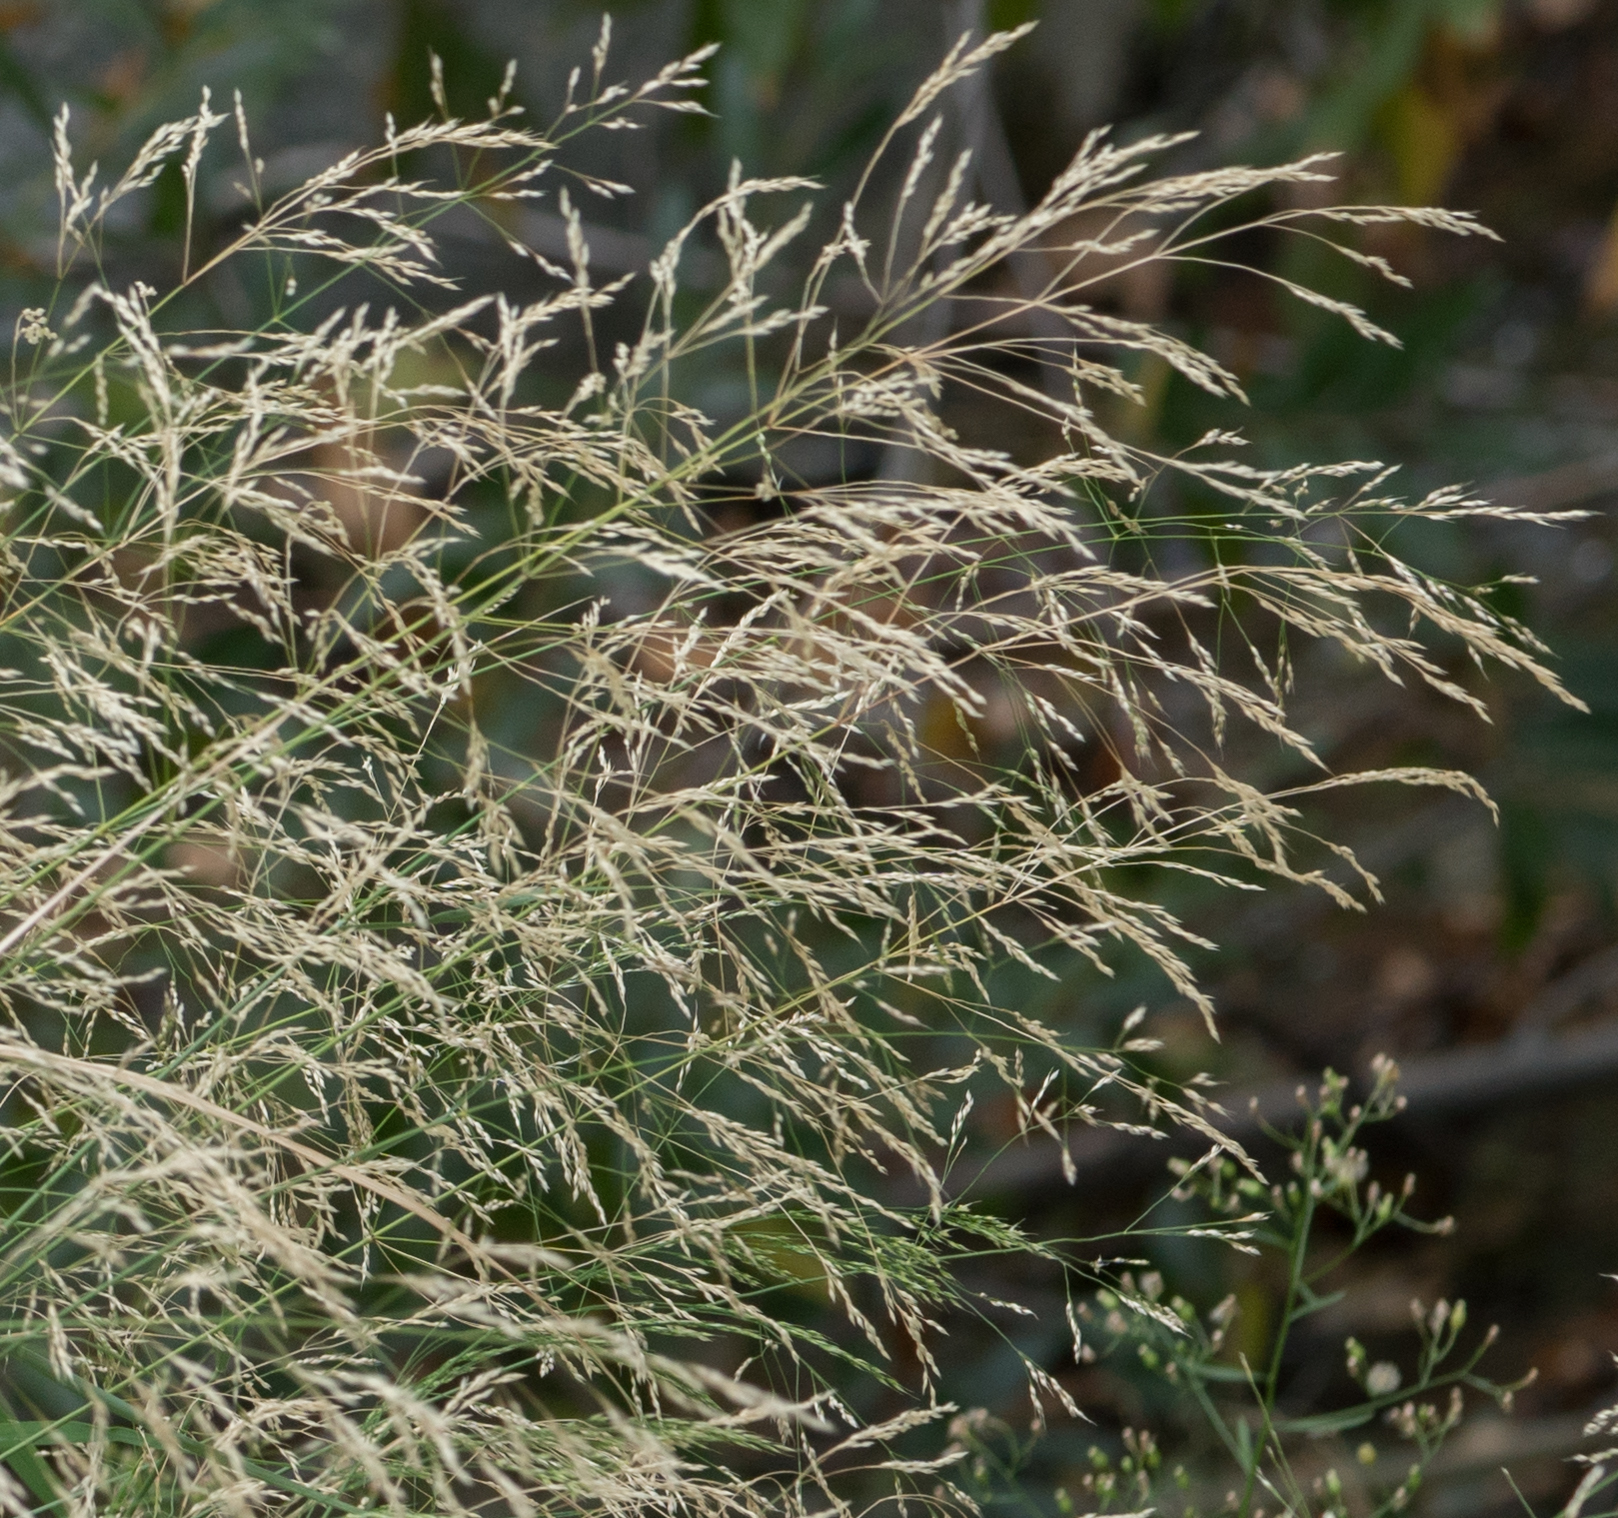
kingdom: Plantae
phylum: Tracheophyta
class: Liliopsida
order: Poales
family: Poaceae
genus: Oloptum
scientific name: Oloptum miliaceum
